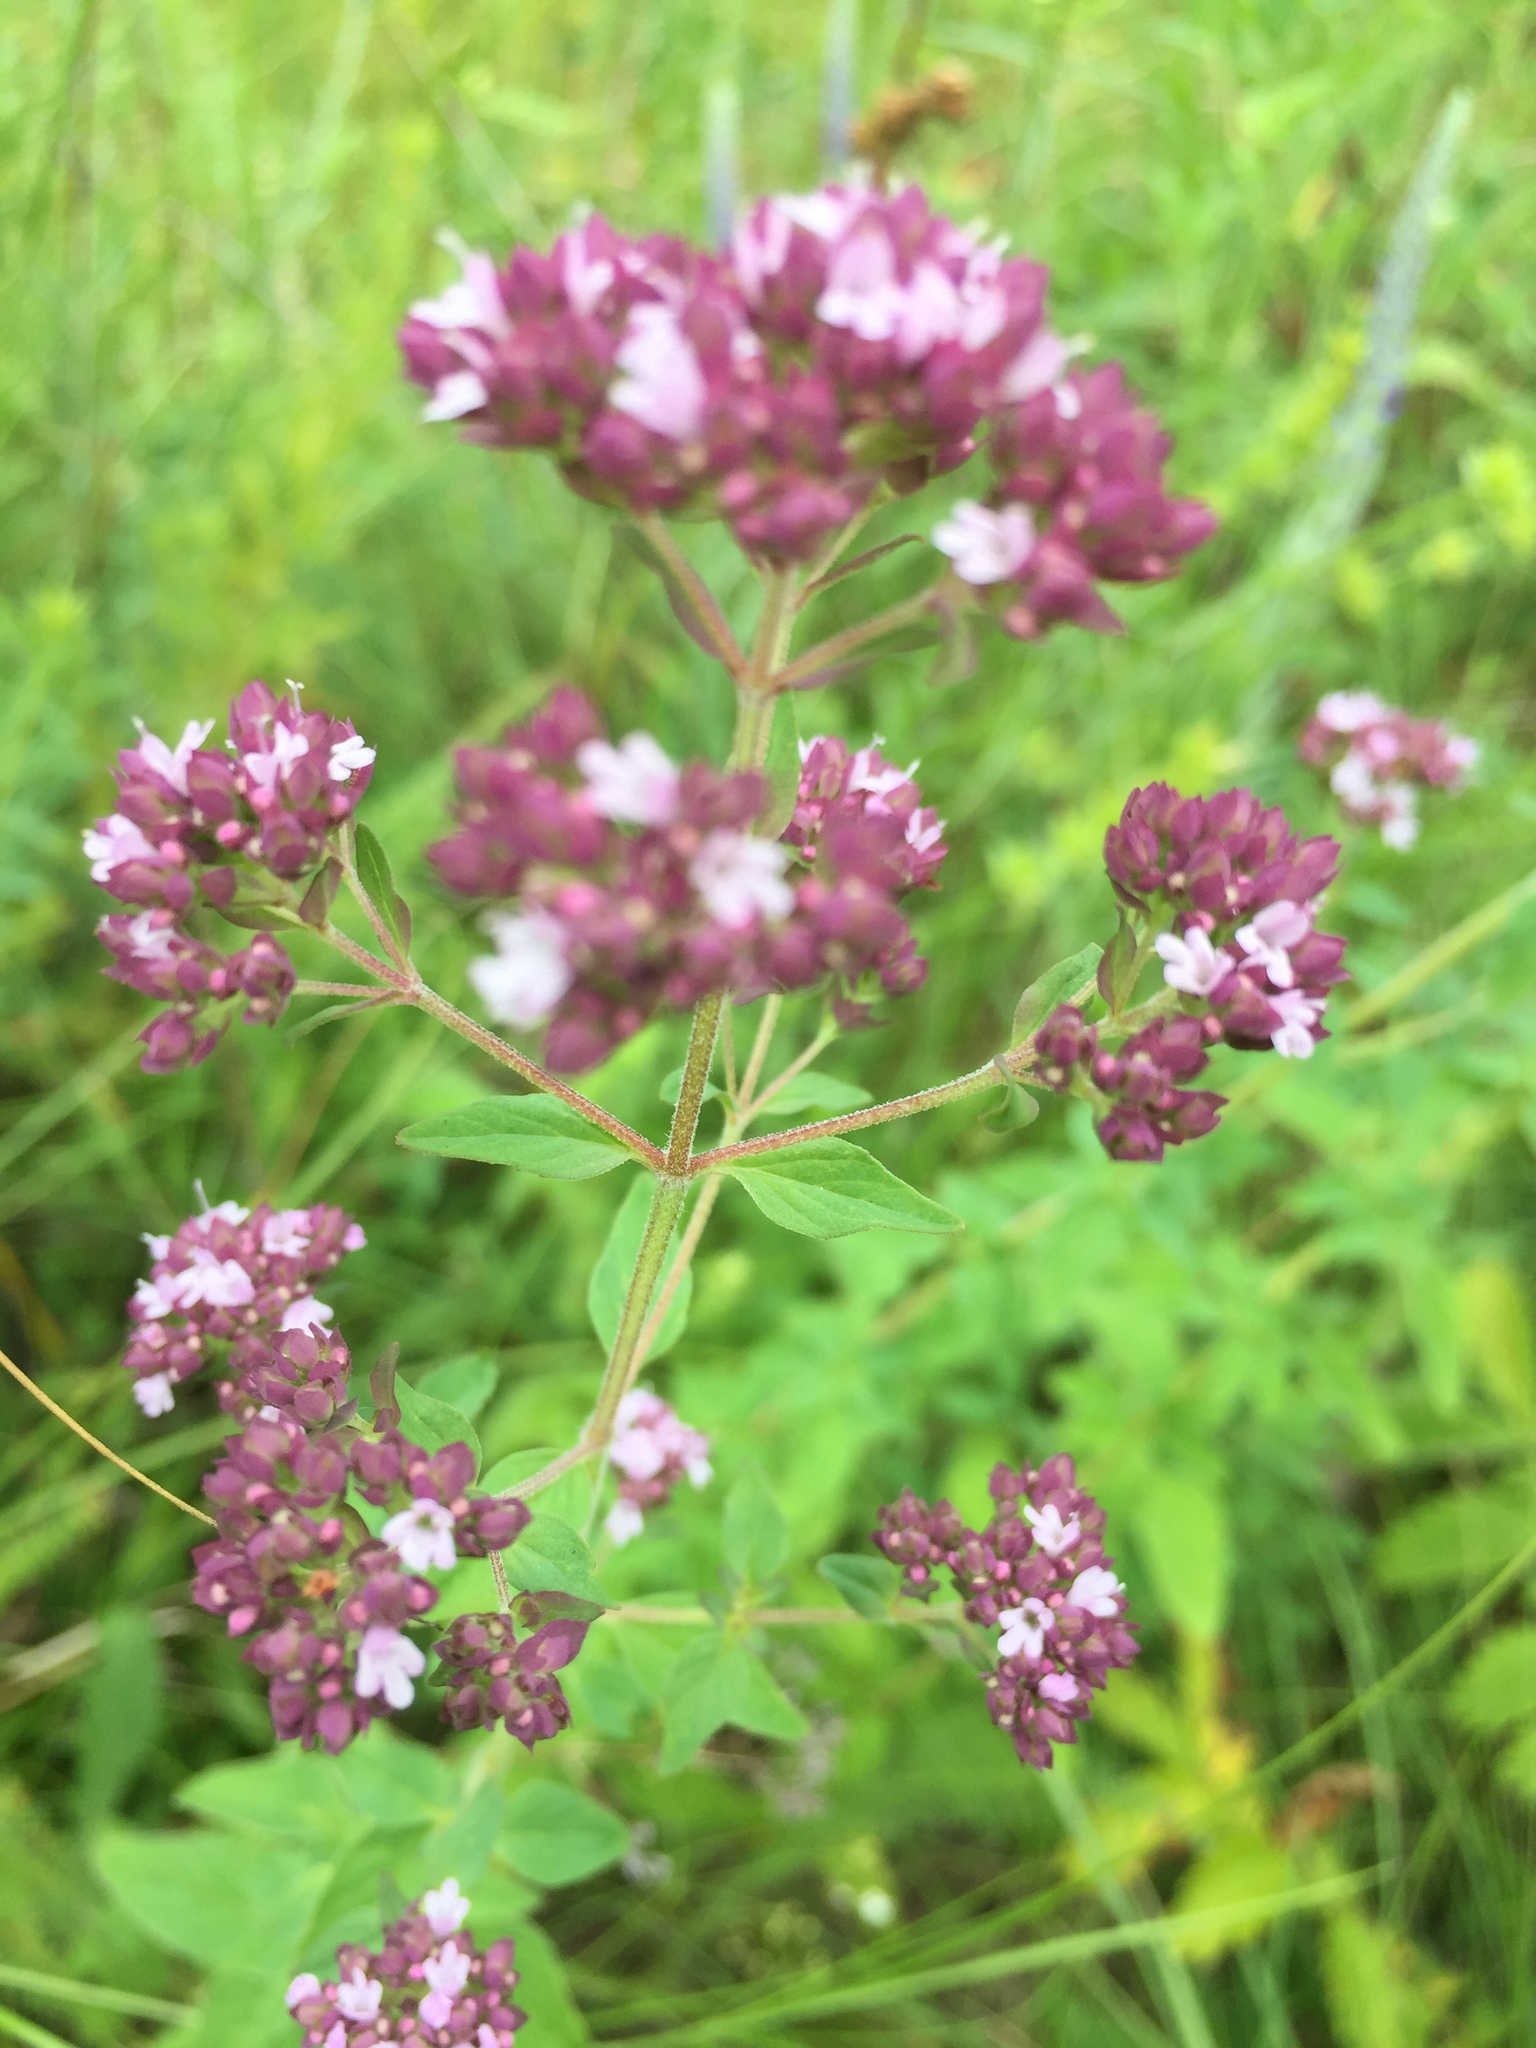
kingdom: Plantae
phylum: Tracheophyta
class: Magnoliopsida
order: Lamiales
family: Lamiaceae
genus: Origanum
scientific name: Origanum vulgare
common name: Wild marjoram
